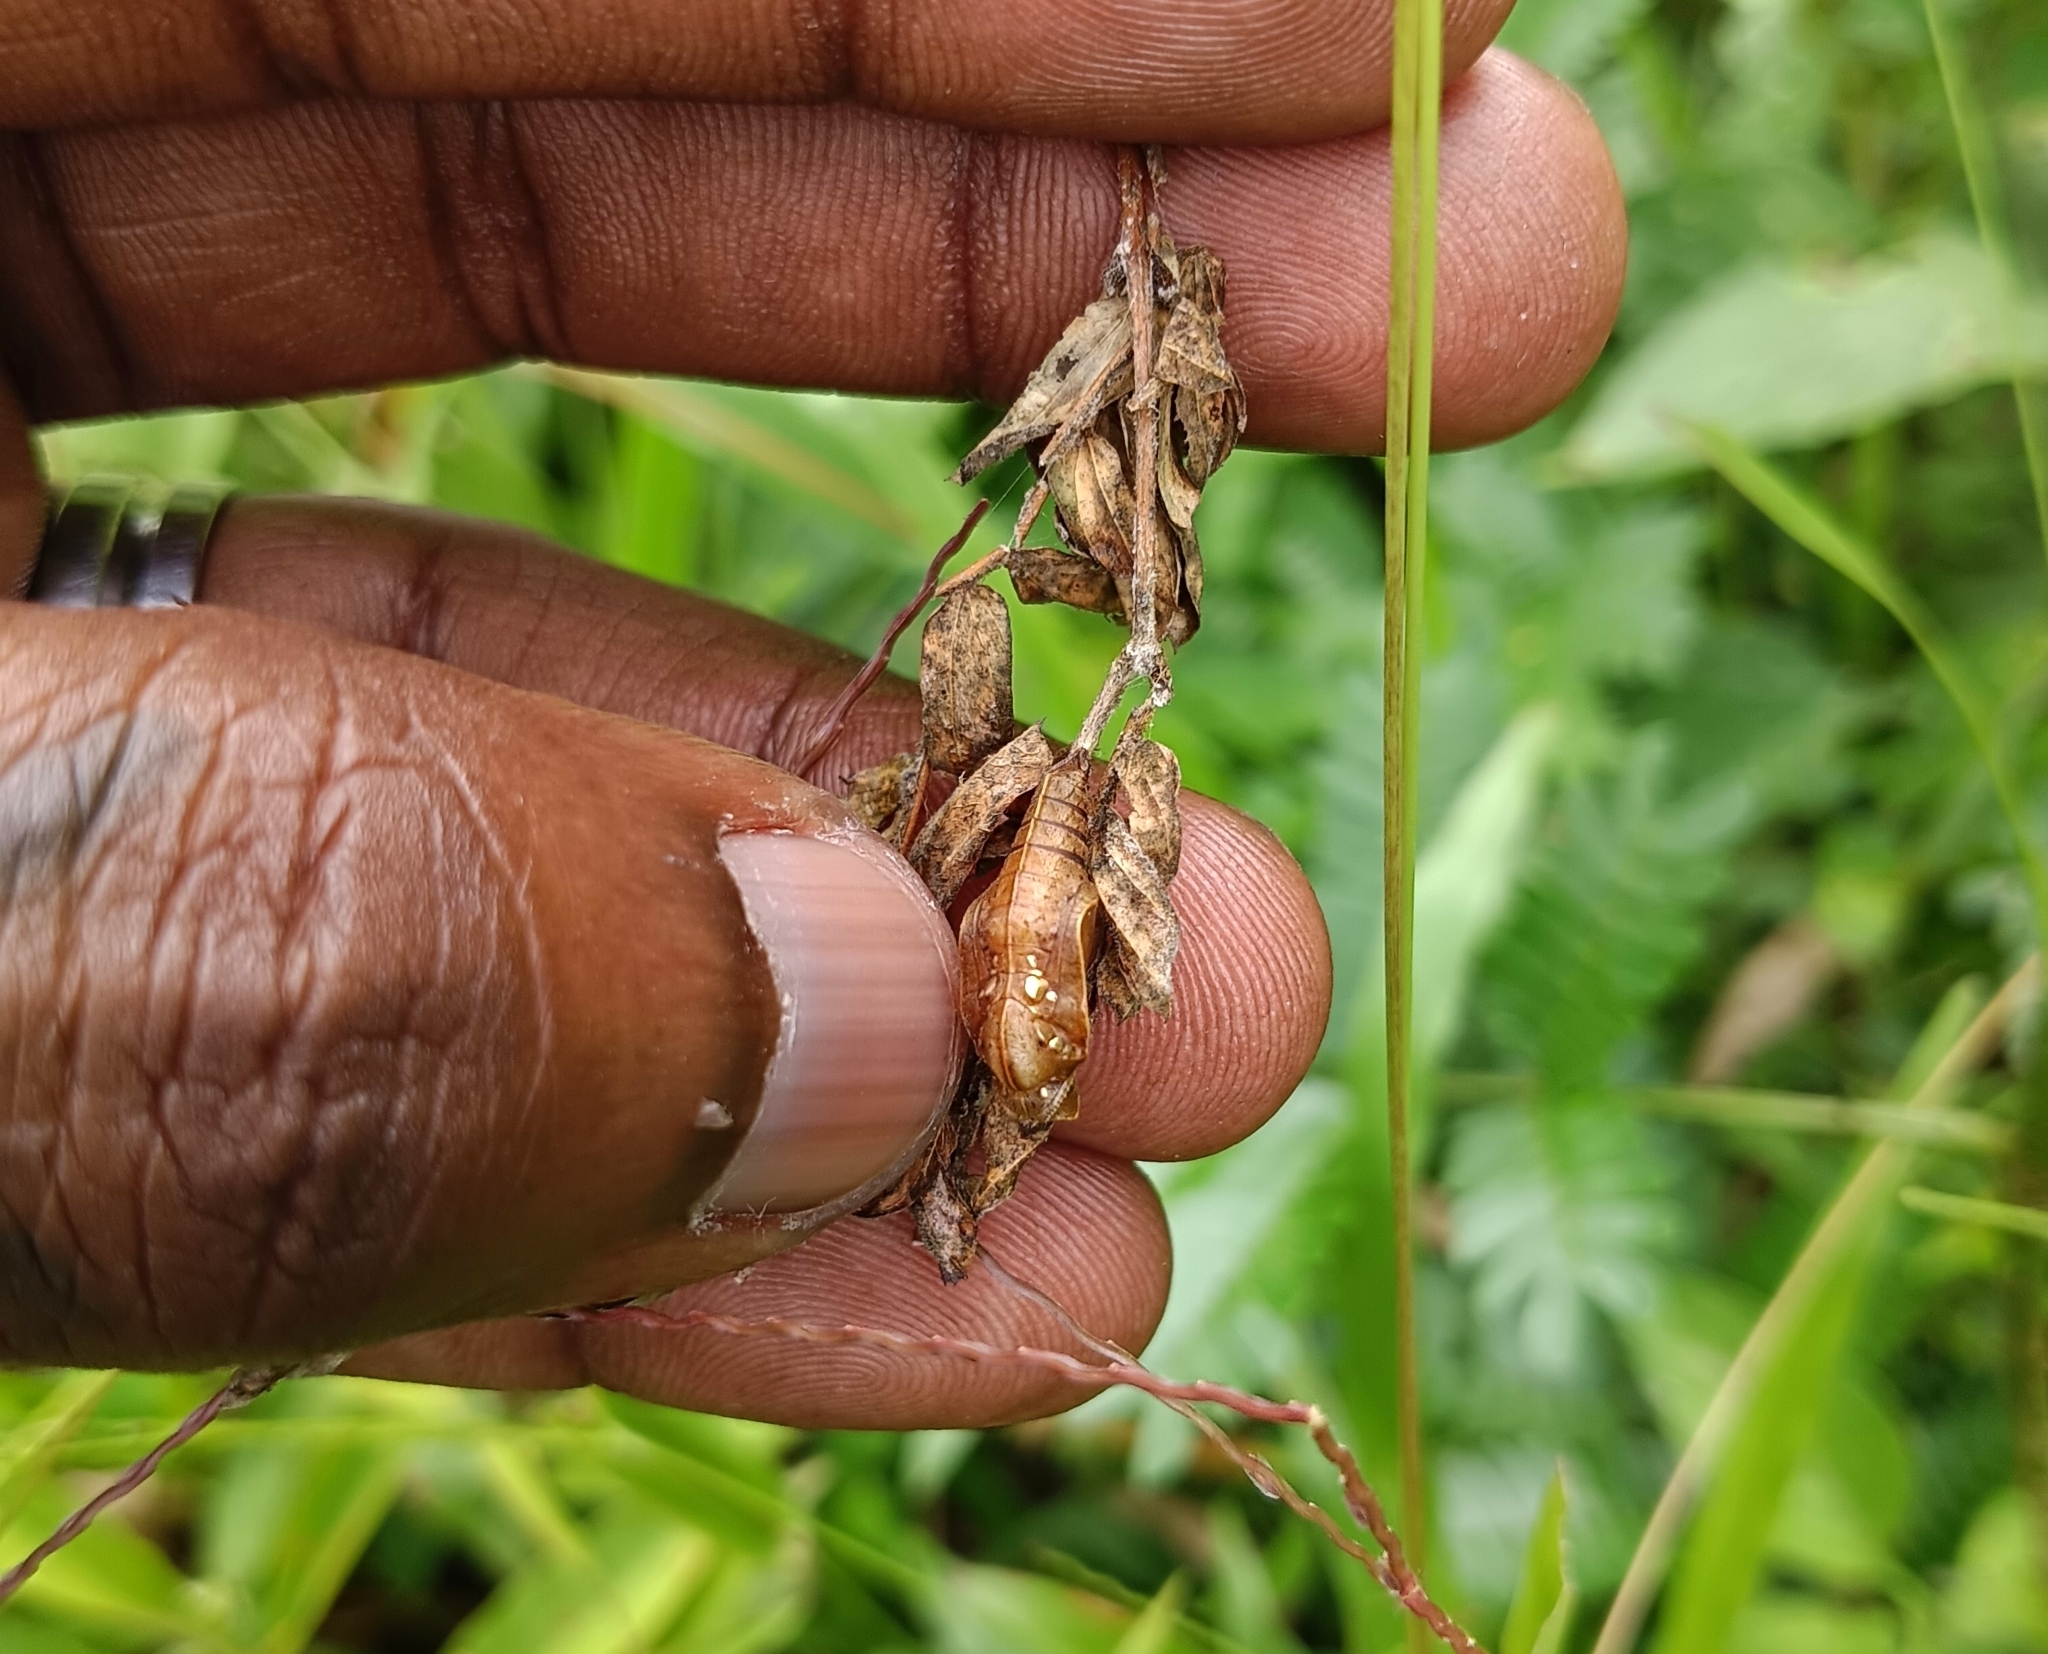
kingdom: Animalia
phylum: Arthropoda
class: Insecta
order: Lepidoptera
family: Nymphalidae
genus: Pantoporia
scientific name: Pantoporia hordonia
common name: Common lascar
